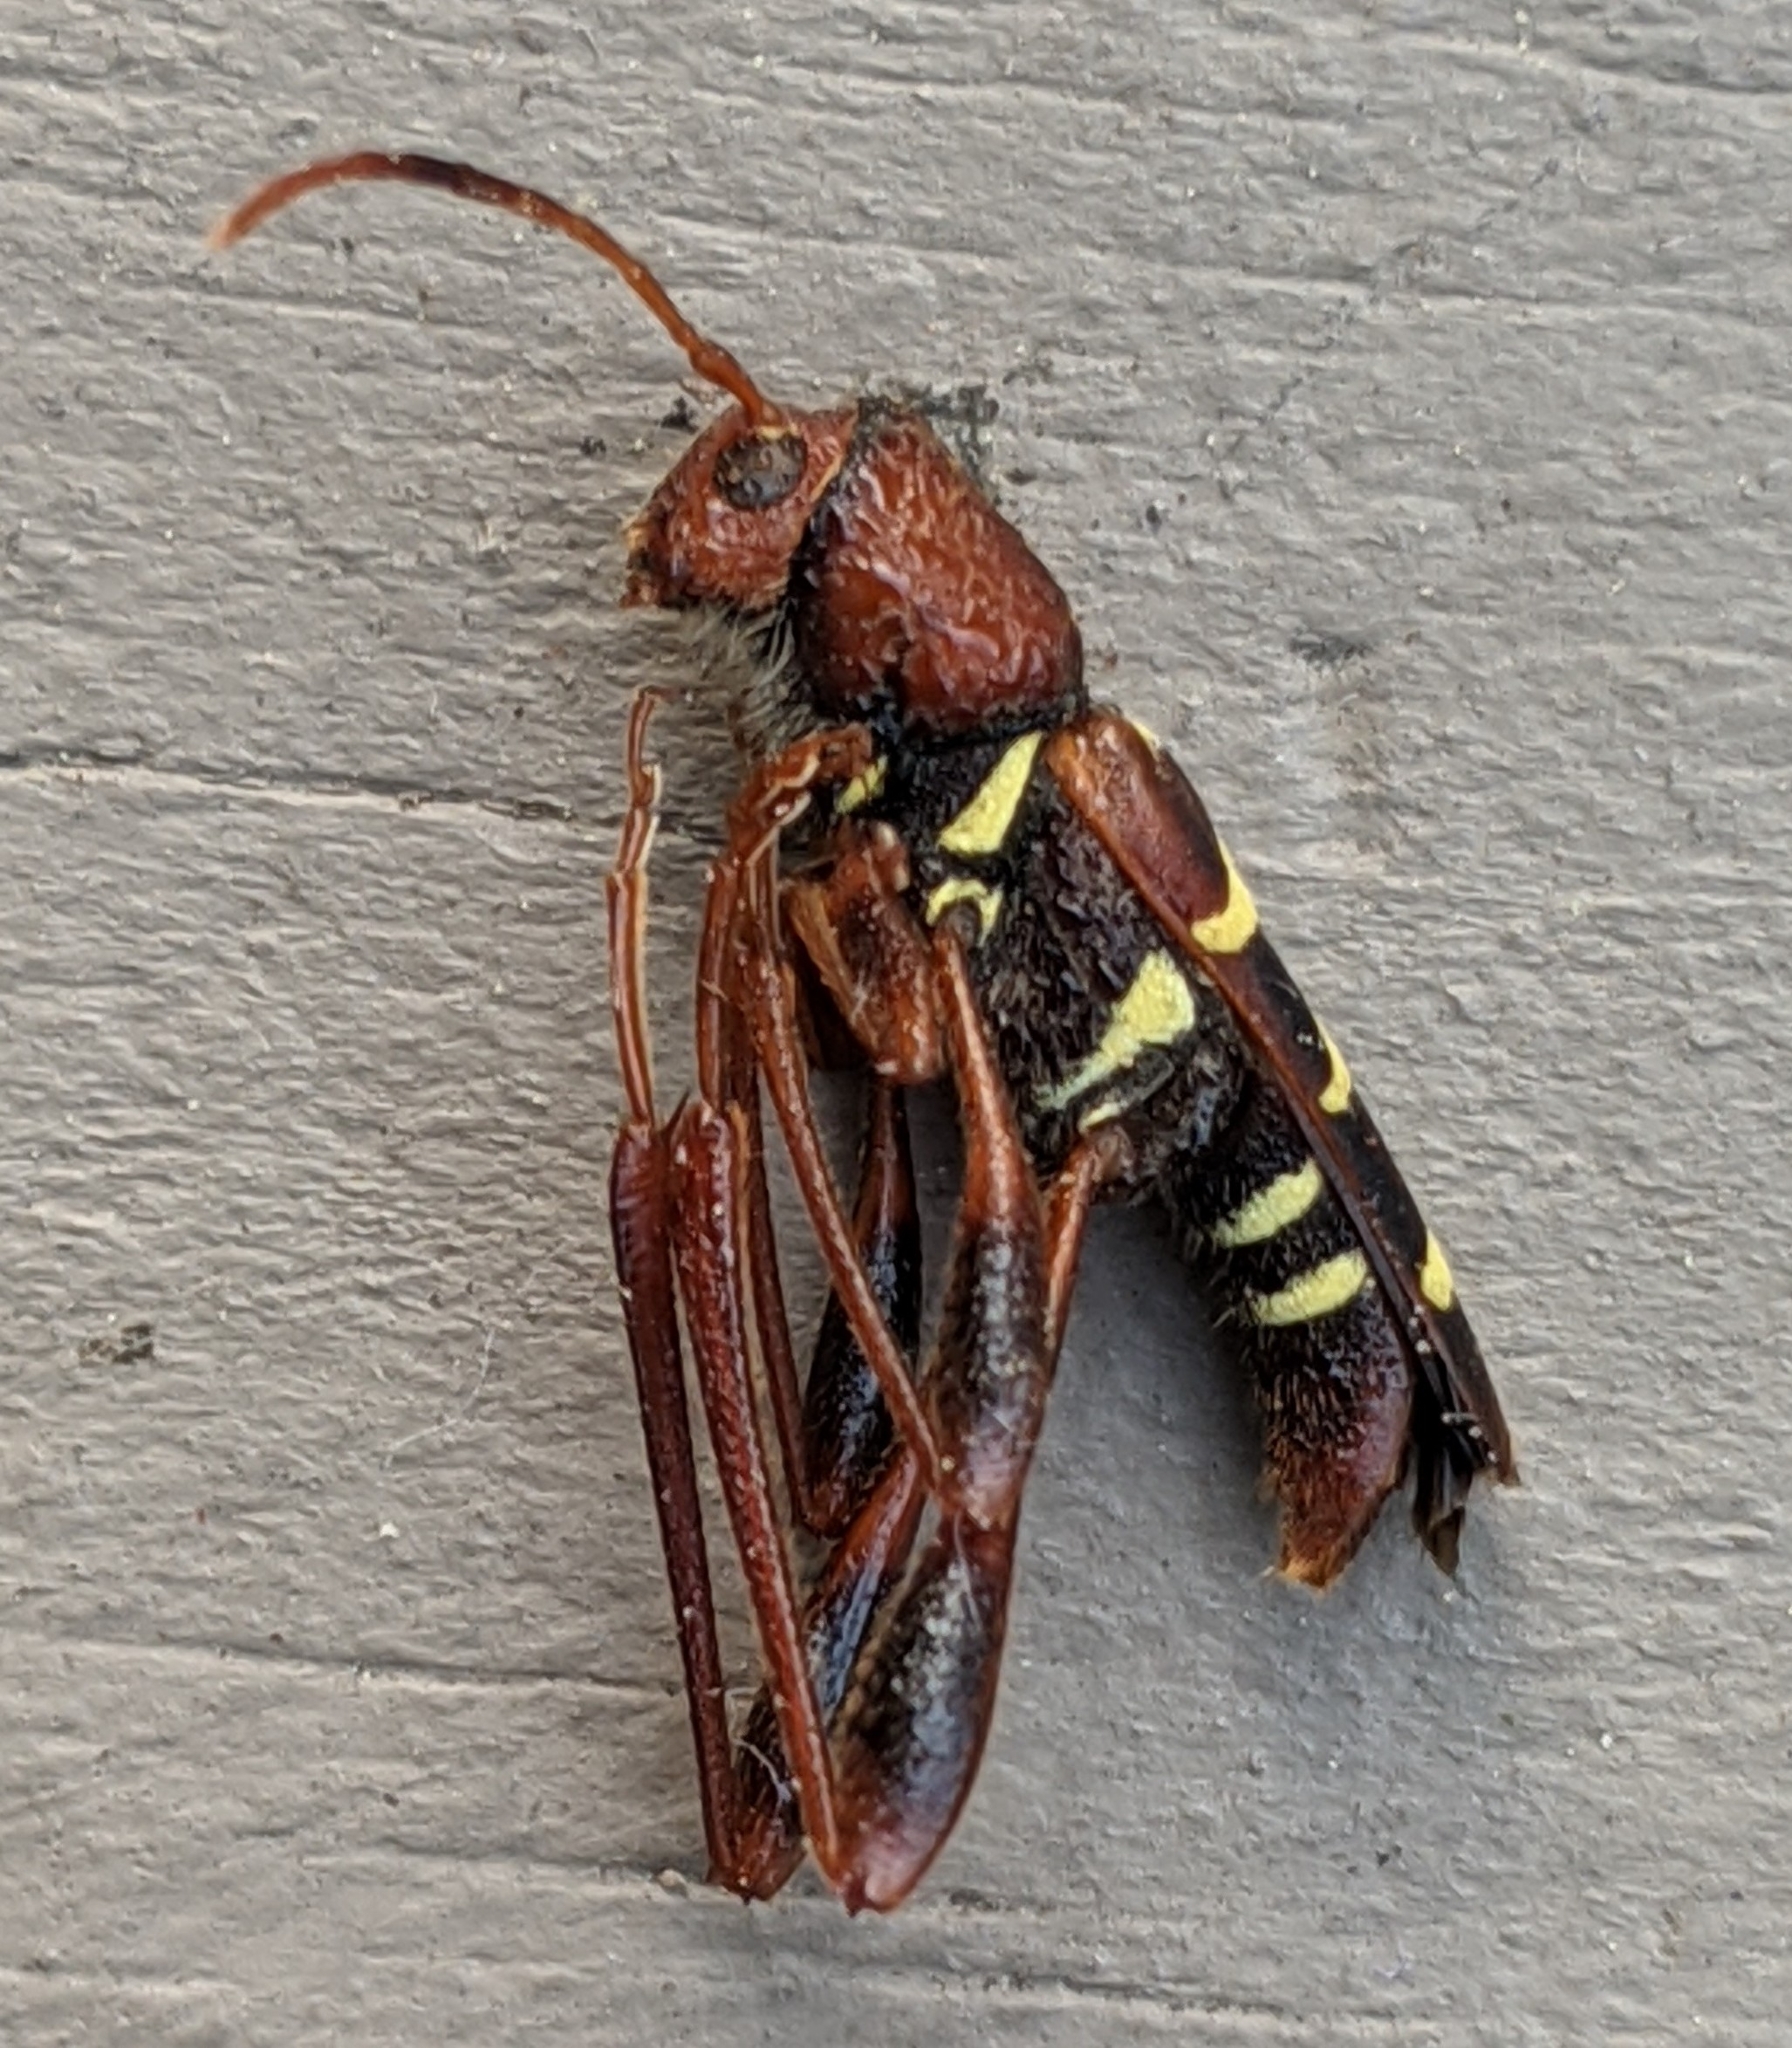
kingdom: Animalia
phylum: Arthropoda
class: Insecta
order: Coleoptera
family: Cerambycidae
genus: Neoclytus
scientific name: Neoclytus acuminatus
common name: Read-headed ash borer
